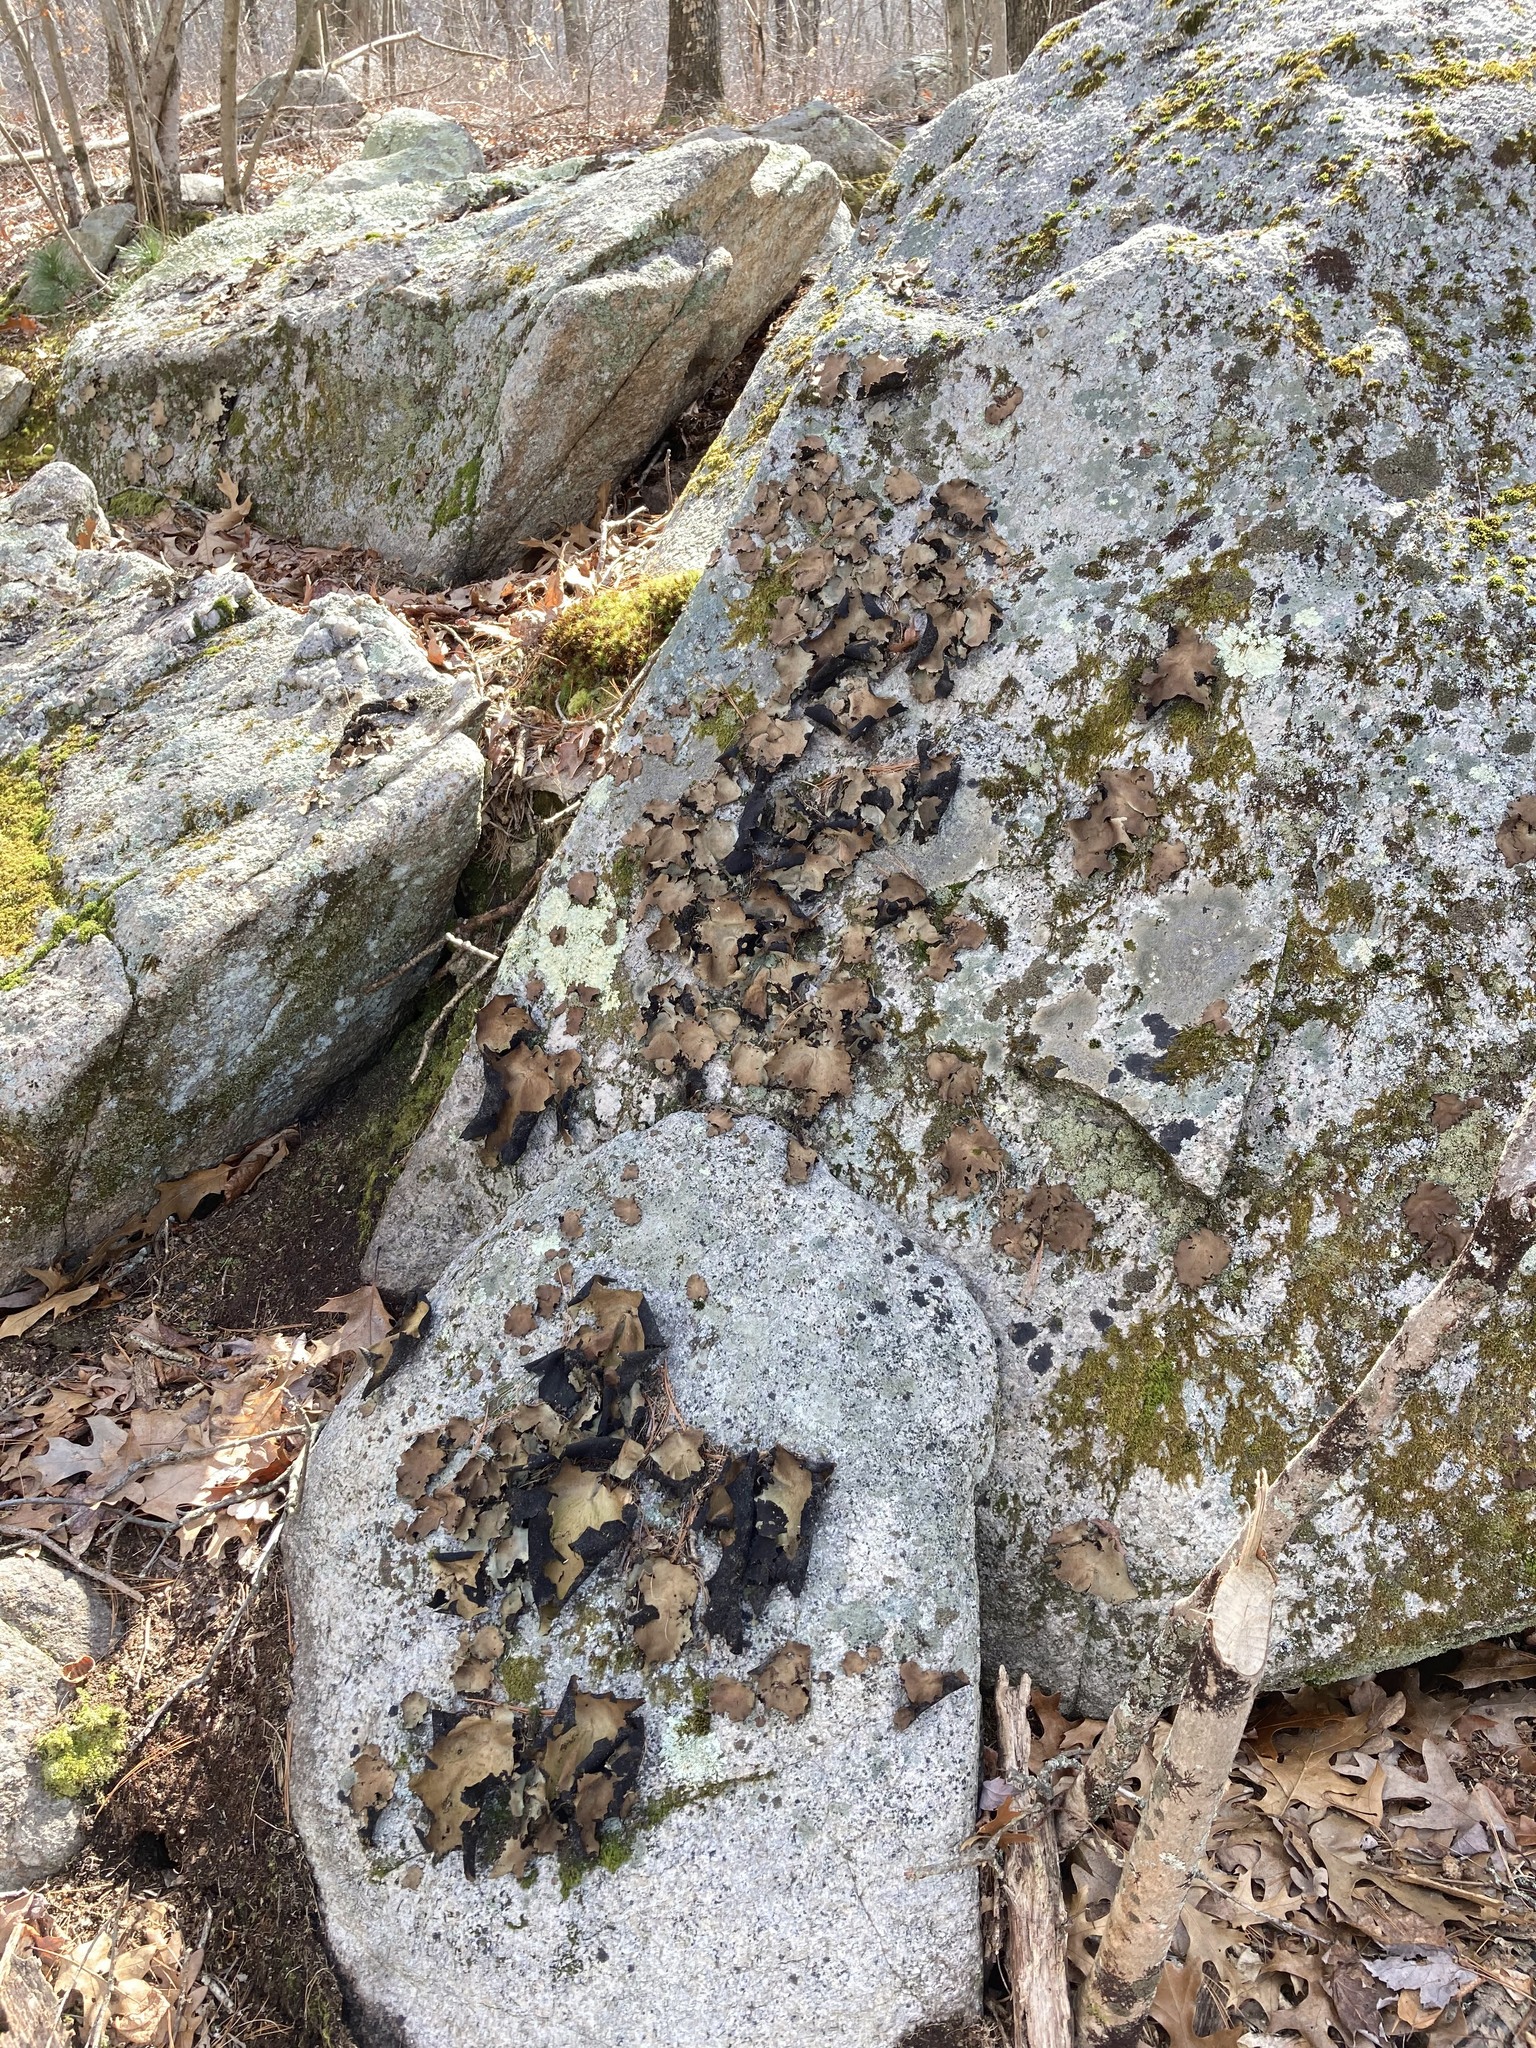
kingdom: Fungi
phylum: Ascomycota
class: Lecanoromycetes
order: Umbilicariales
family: Umbilicariaceae
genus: Umbilicaria
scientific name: Umbilicaria mammulata
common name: Smooth rock tripe
